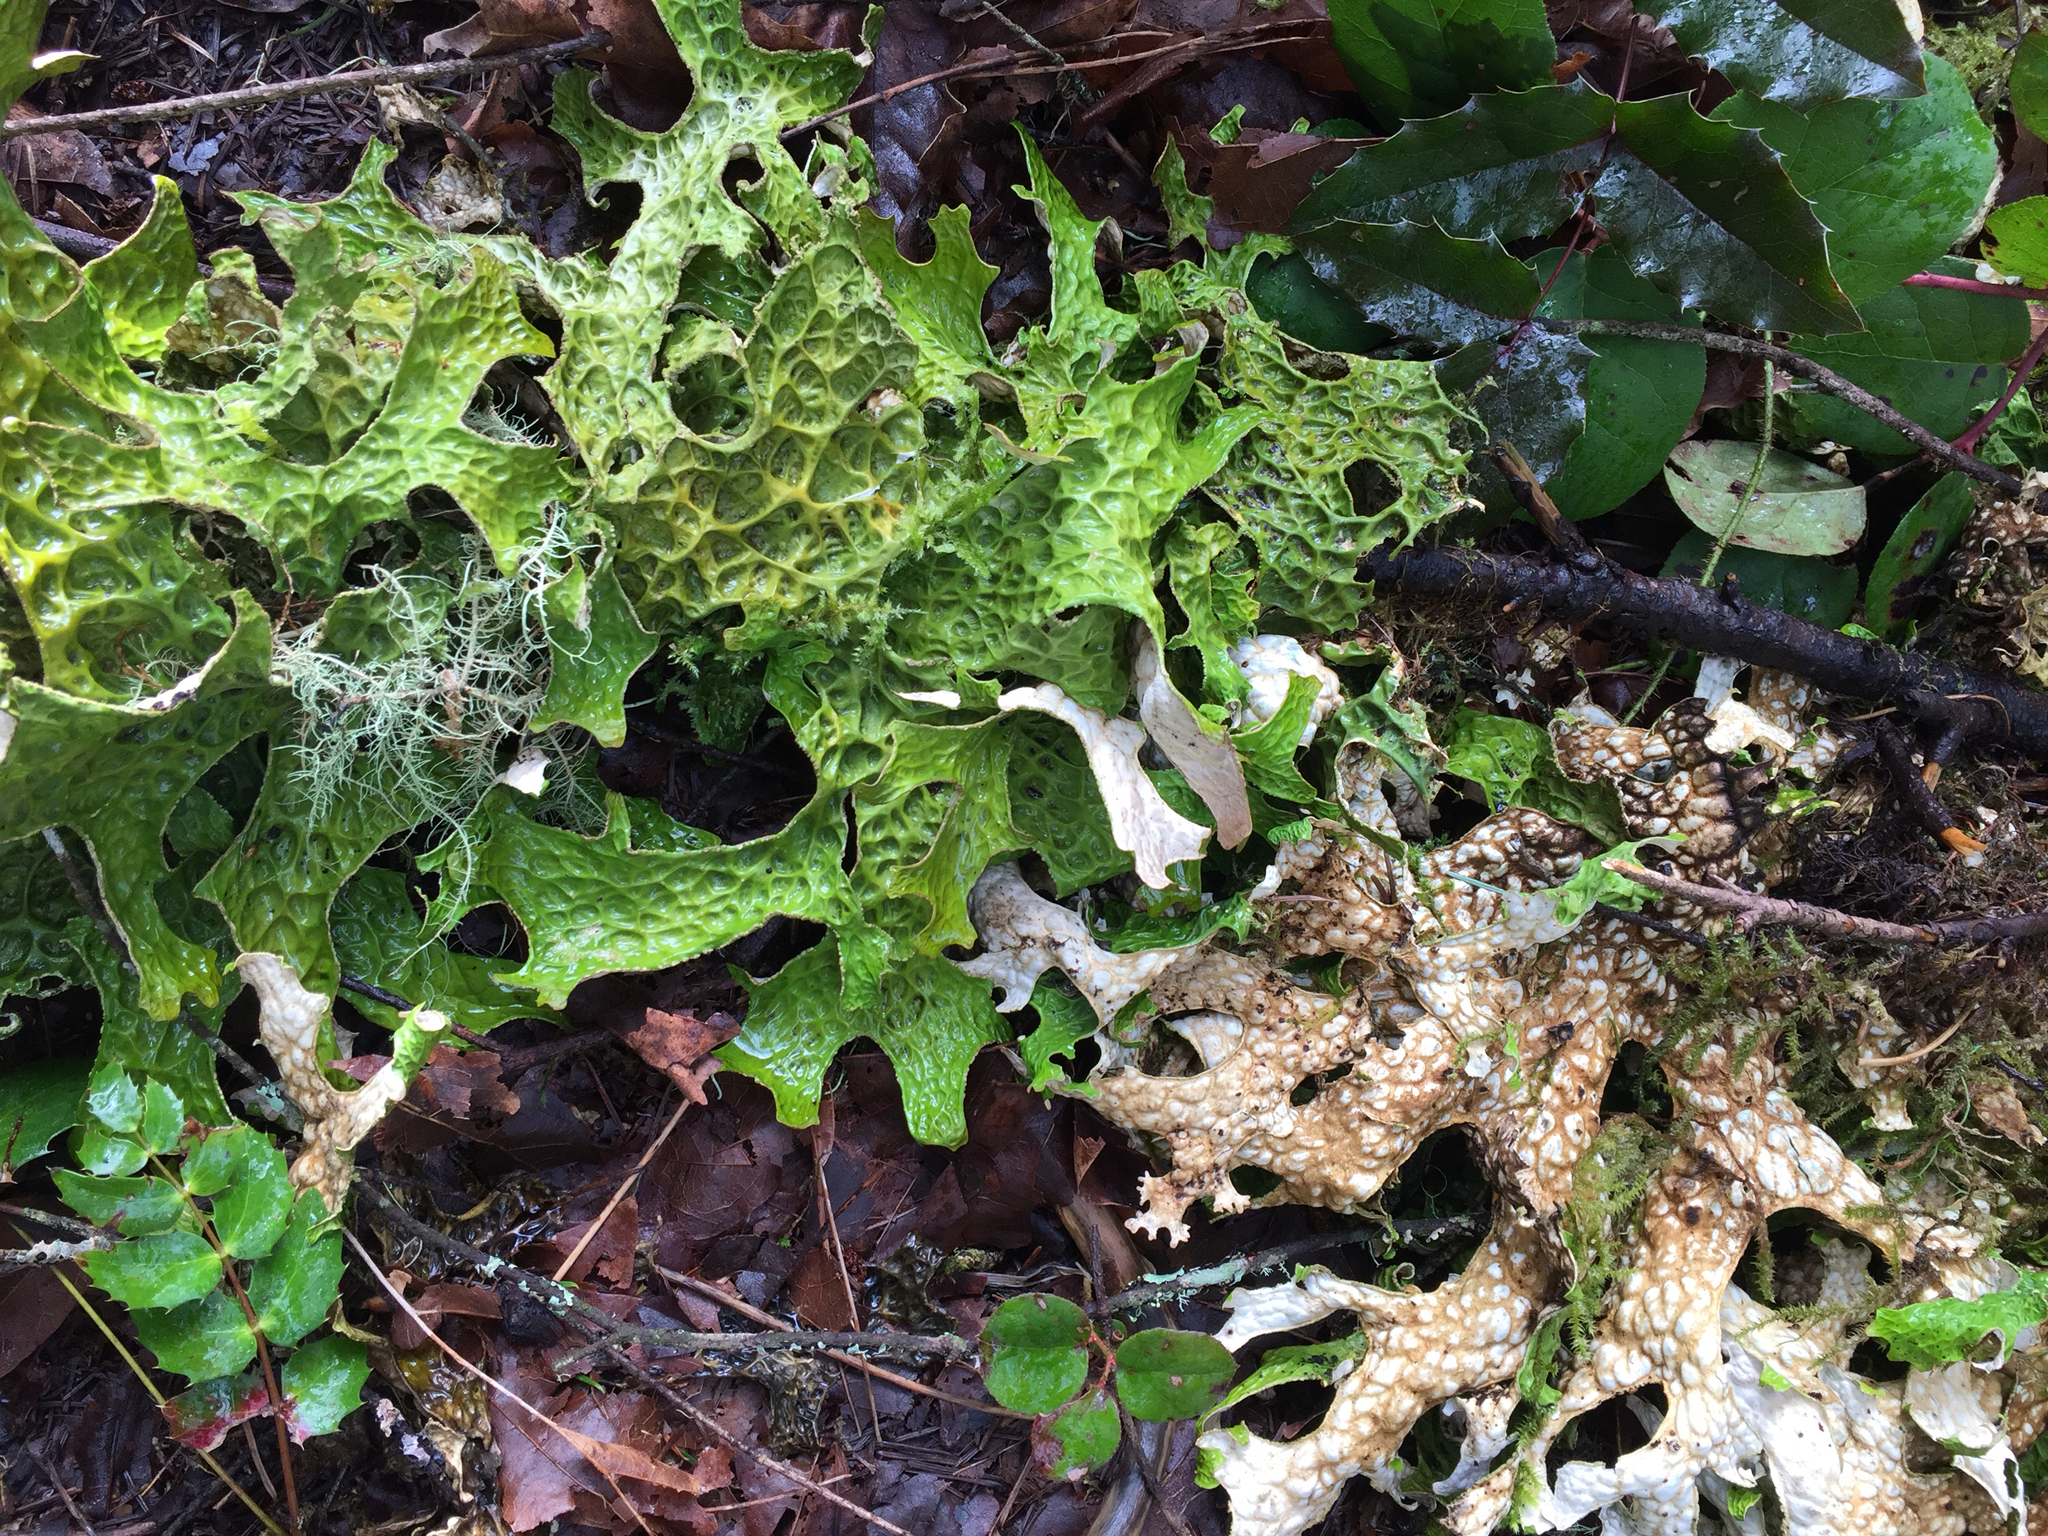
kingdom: Fungi
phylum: Ascomycota
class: Lecanoromycetes
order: Peltigerales
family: Lobariaceae
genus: Lobaria
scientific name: Lobaria pulmonaria
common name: Lungwort
